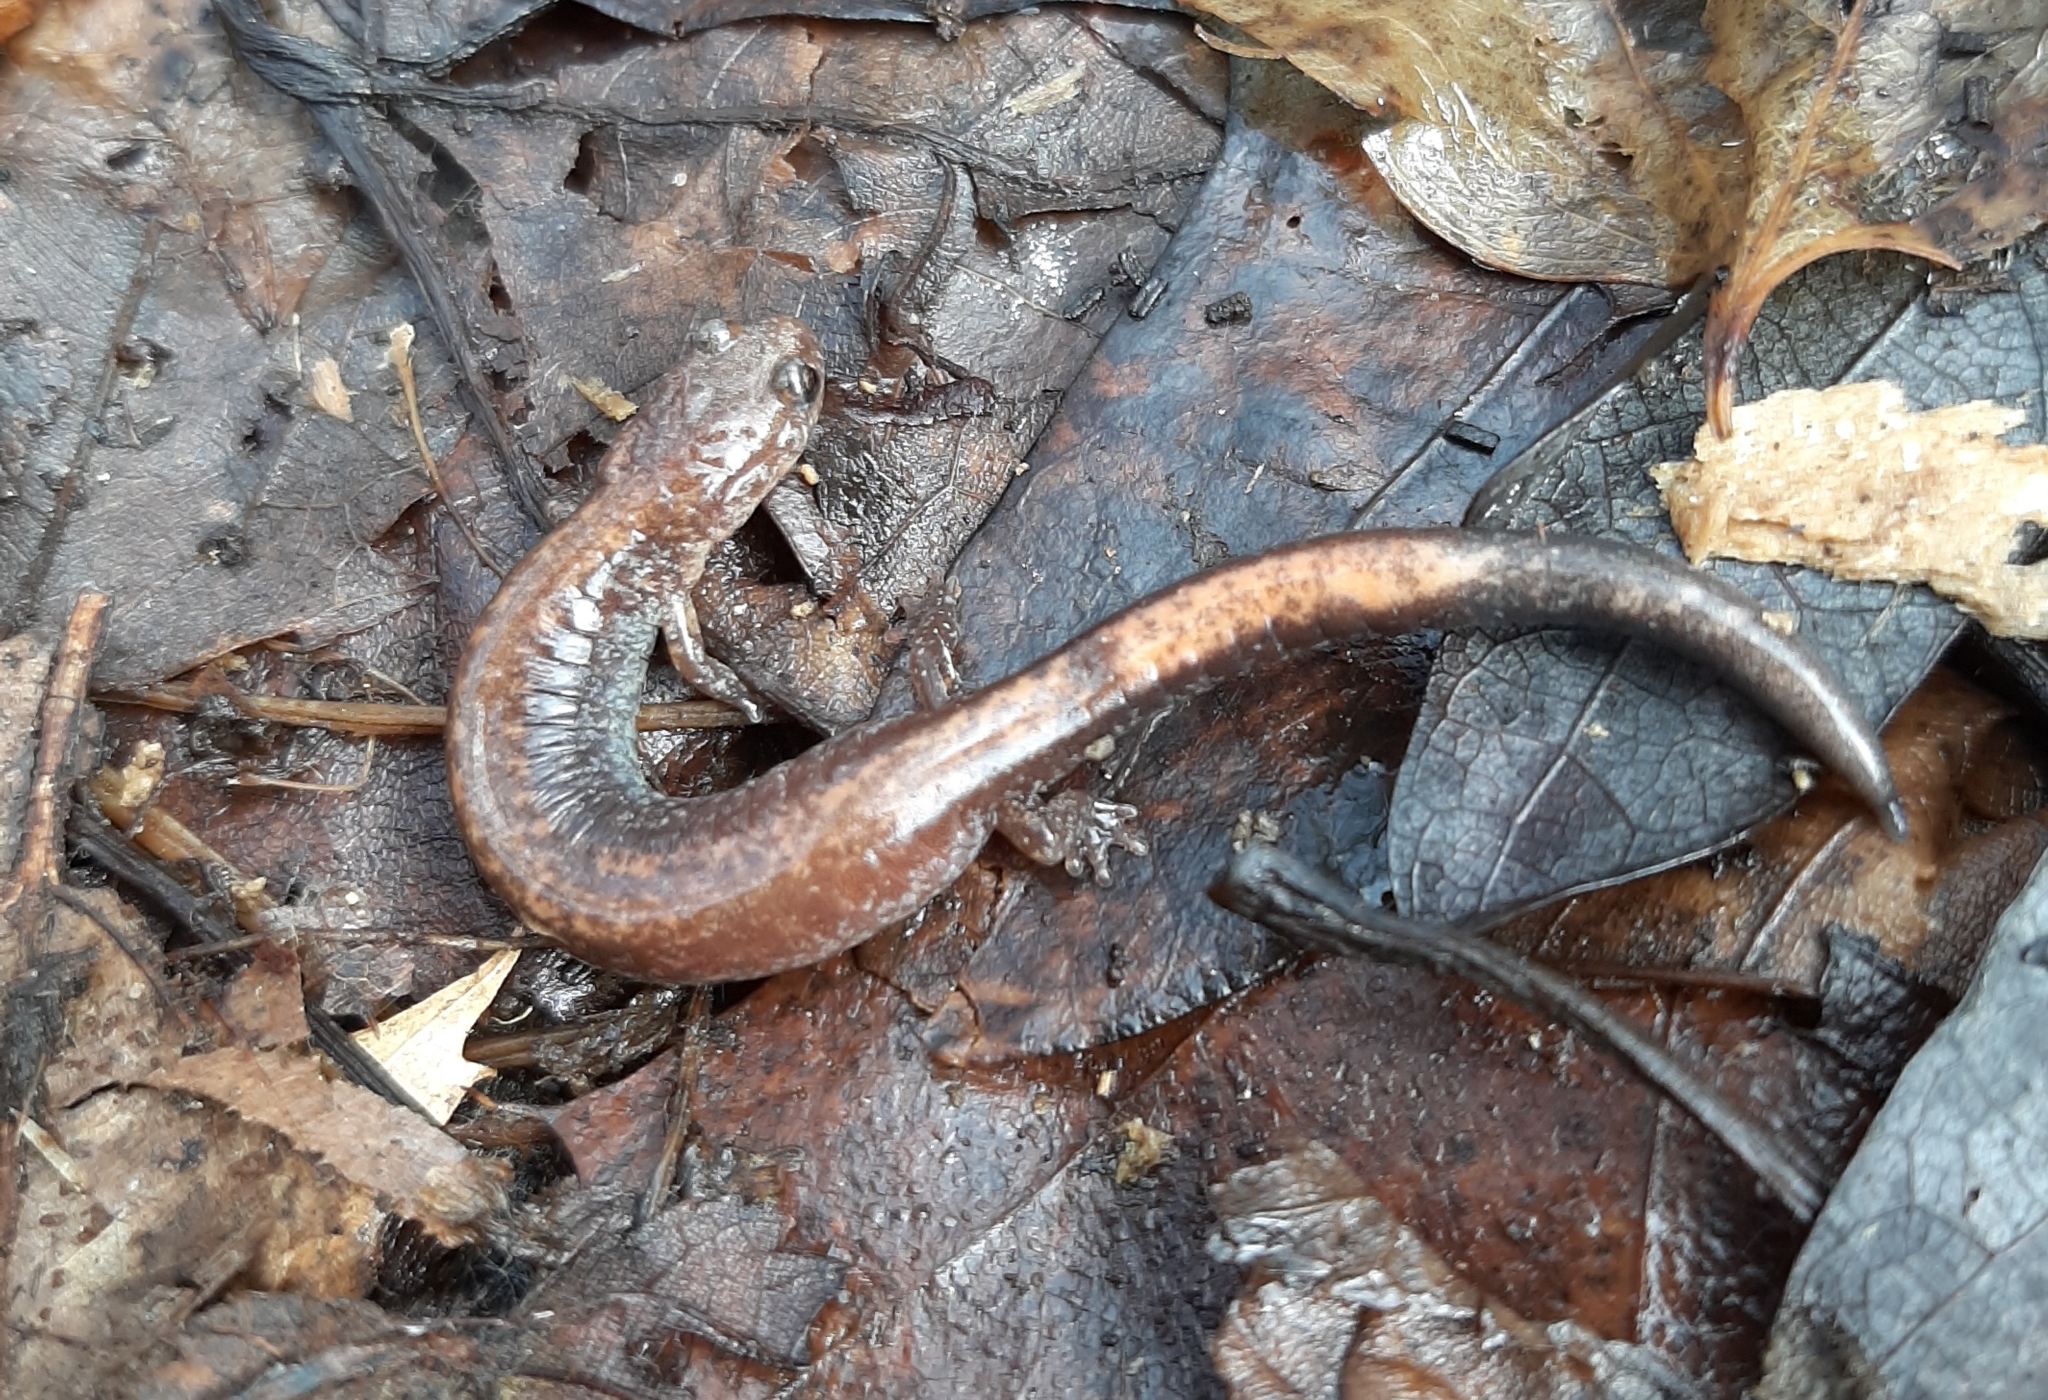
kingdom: Animalia
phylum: Chordata
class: Amphibia
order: Caudata
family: Plethodontidae
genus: Plethodon
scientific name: Plethodon cinereus
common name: Redback salamander
